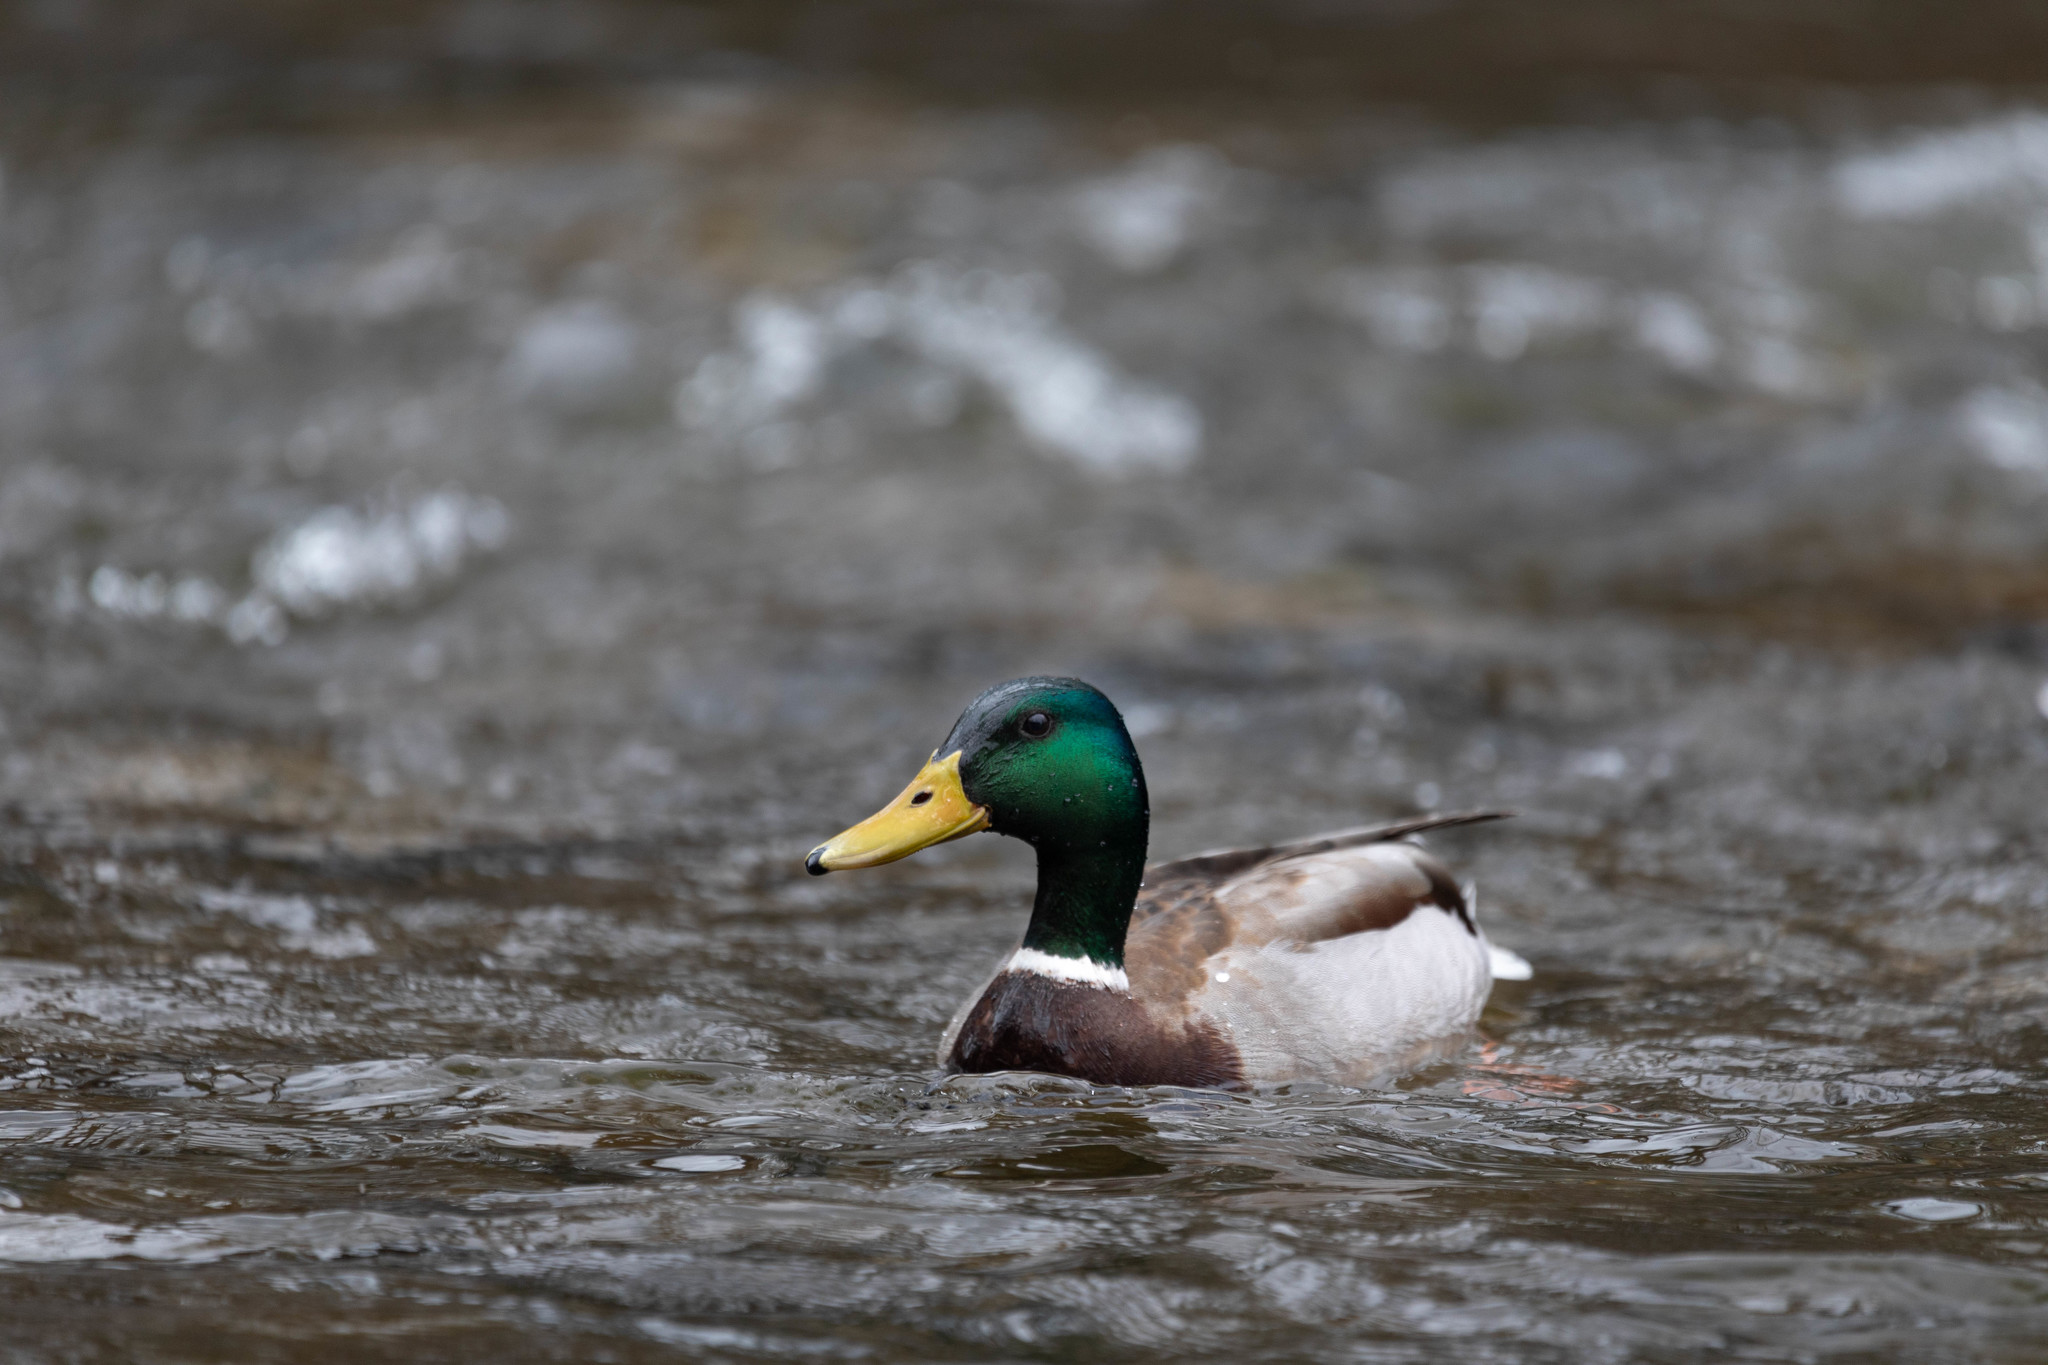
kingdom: Animalia
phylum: Chordata
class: Aves
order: Anseriformes
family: Anatidae
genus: Anas
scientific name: Anas platyrhynchos
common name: Mallard
